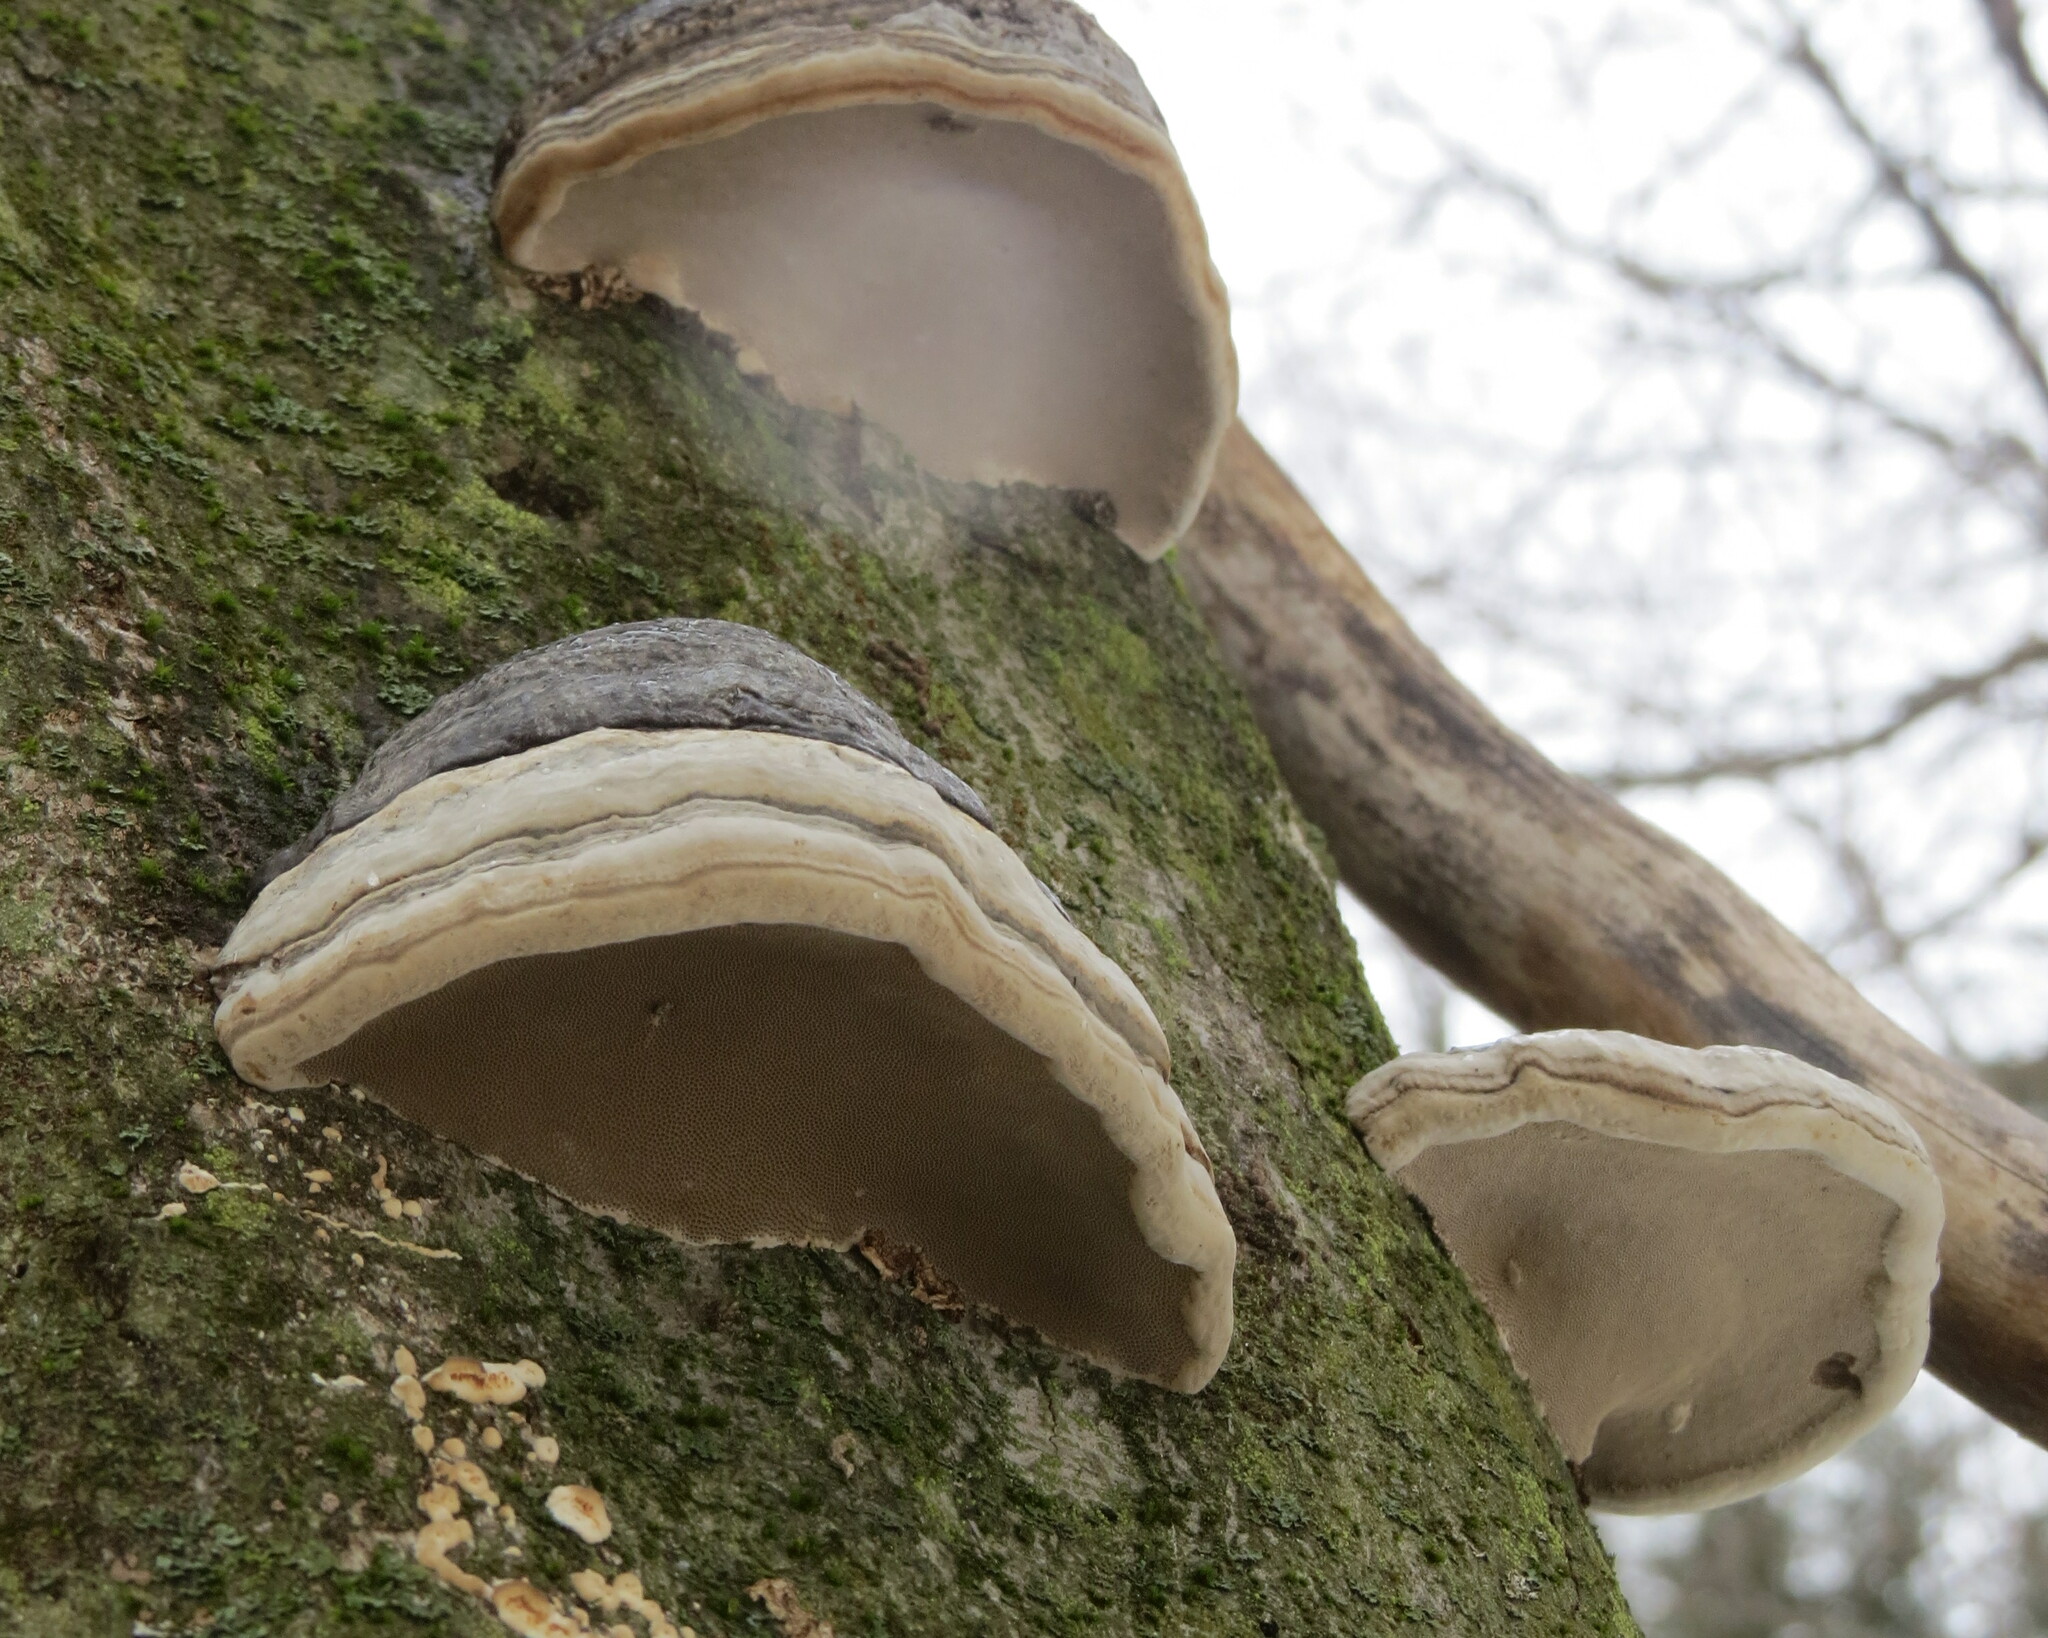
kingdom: Fungi
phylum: Basidiomycota
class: Agaricomycetes
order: Polyporales
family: Polyporaceae
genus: Fomes
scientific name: Fomes fomentarius
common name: Hoof fungus
